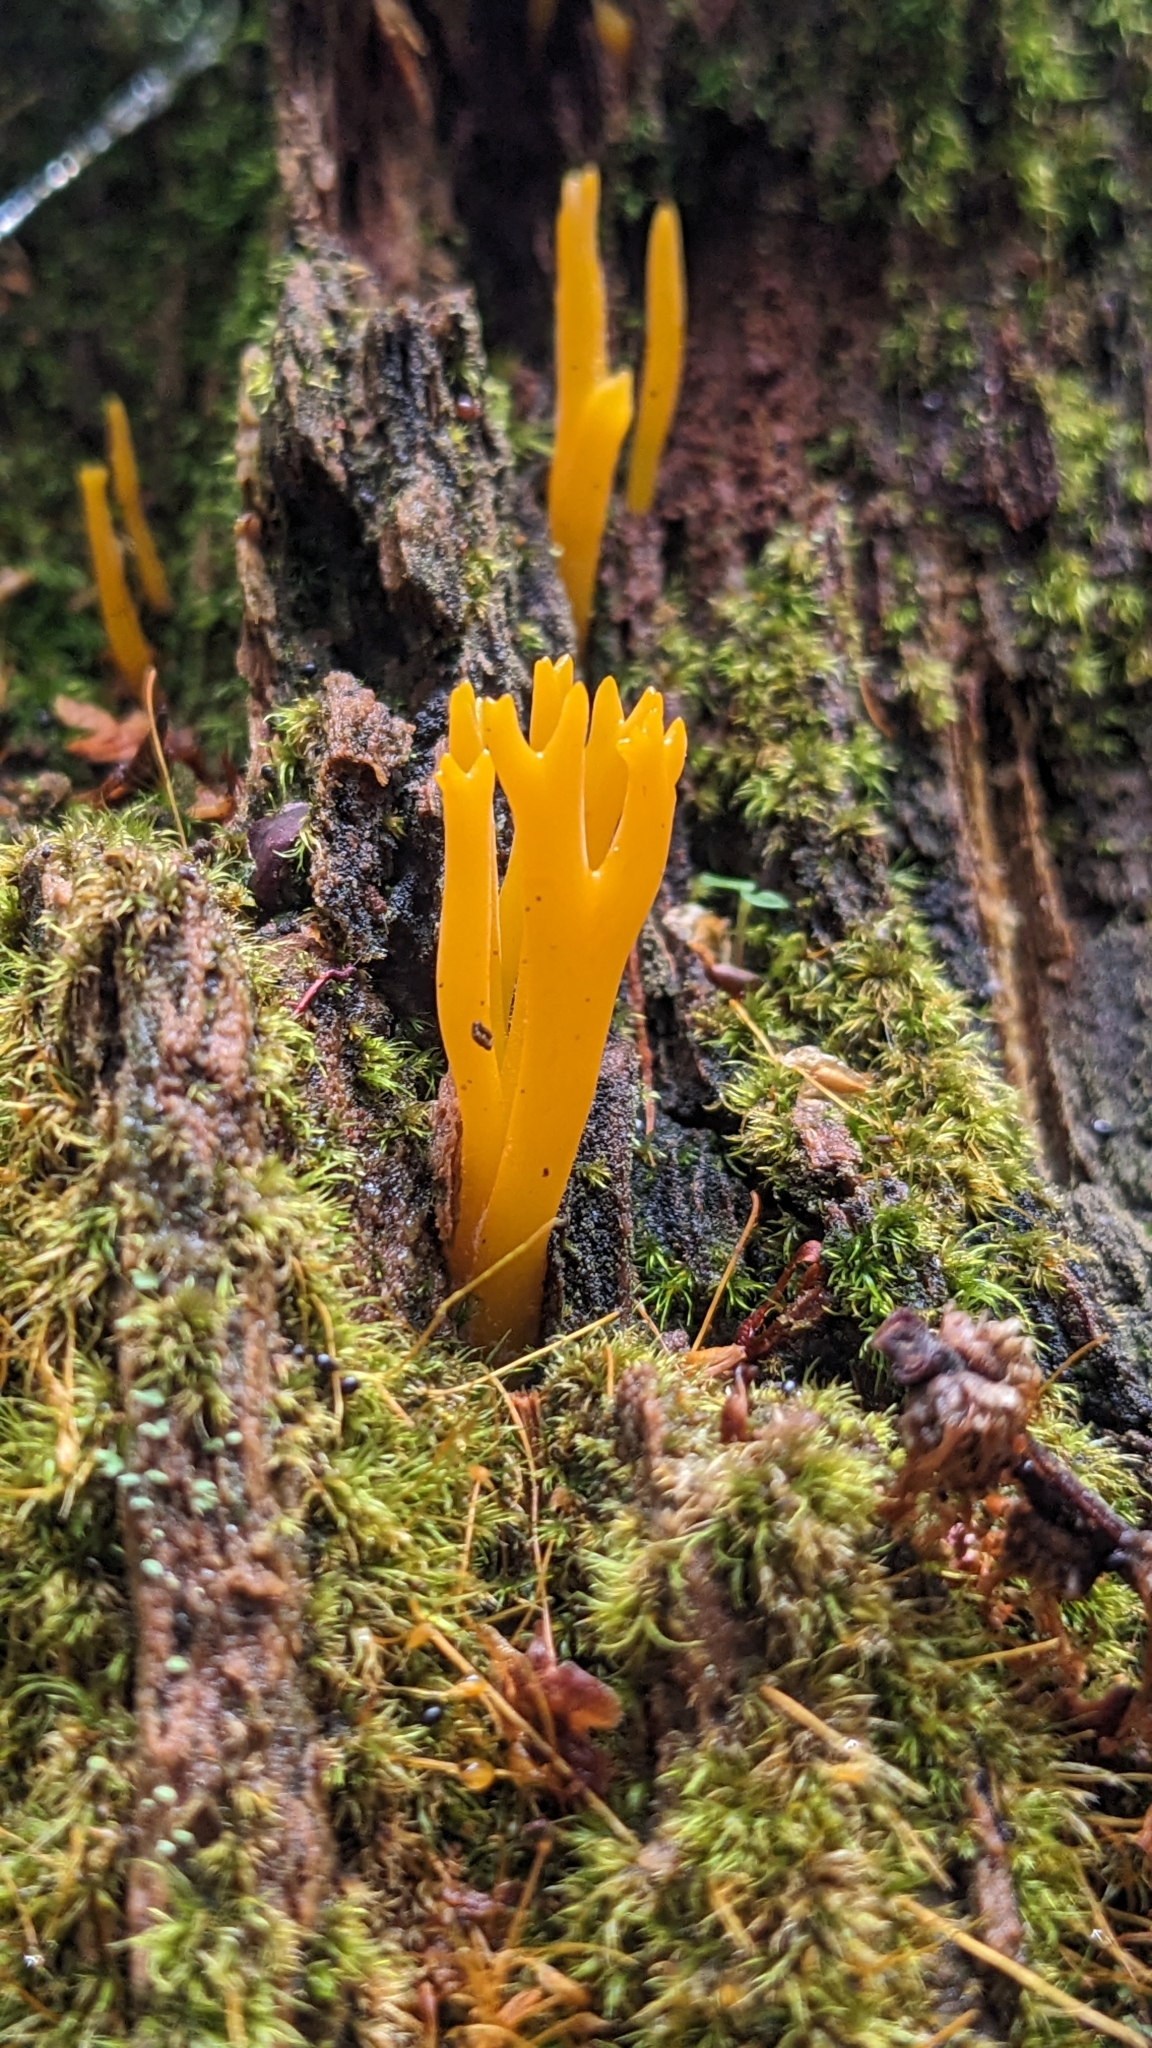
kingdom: Fungi
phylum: Basidiomycota
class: Dacrymycetes
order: Dacrymycetales
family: Dacrymycetaceae
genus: Calocera
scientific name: Calocera viscosa
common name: Yellow stagshorn
